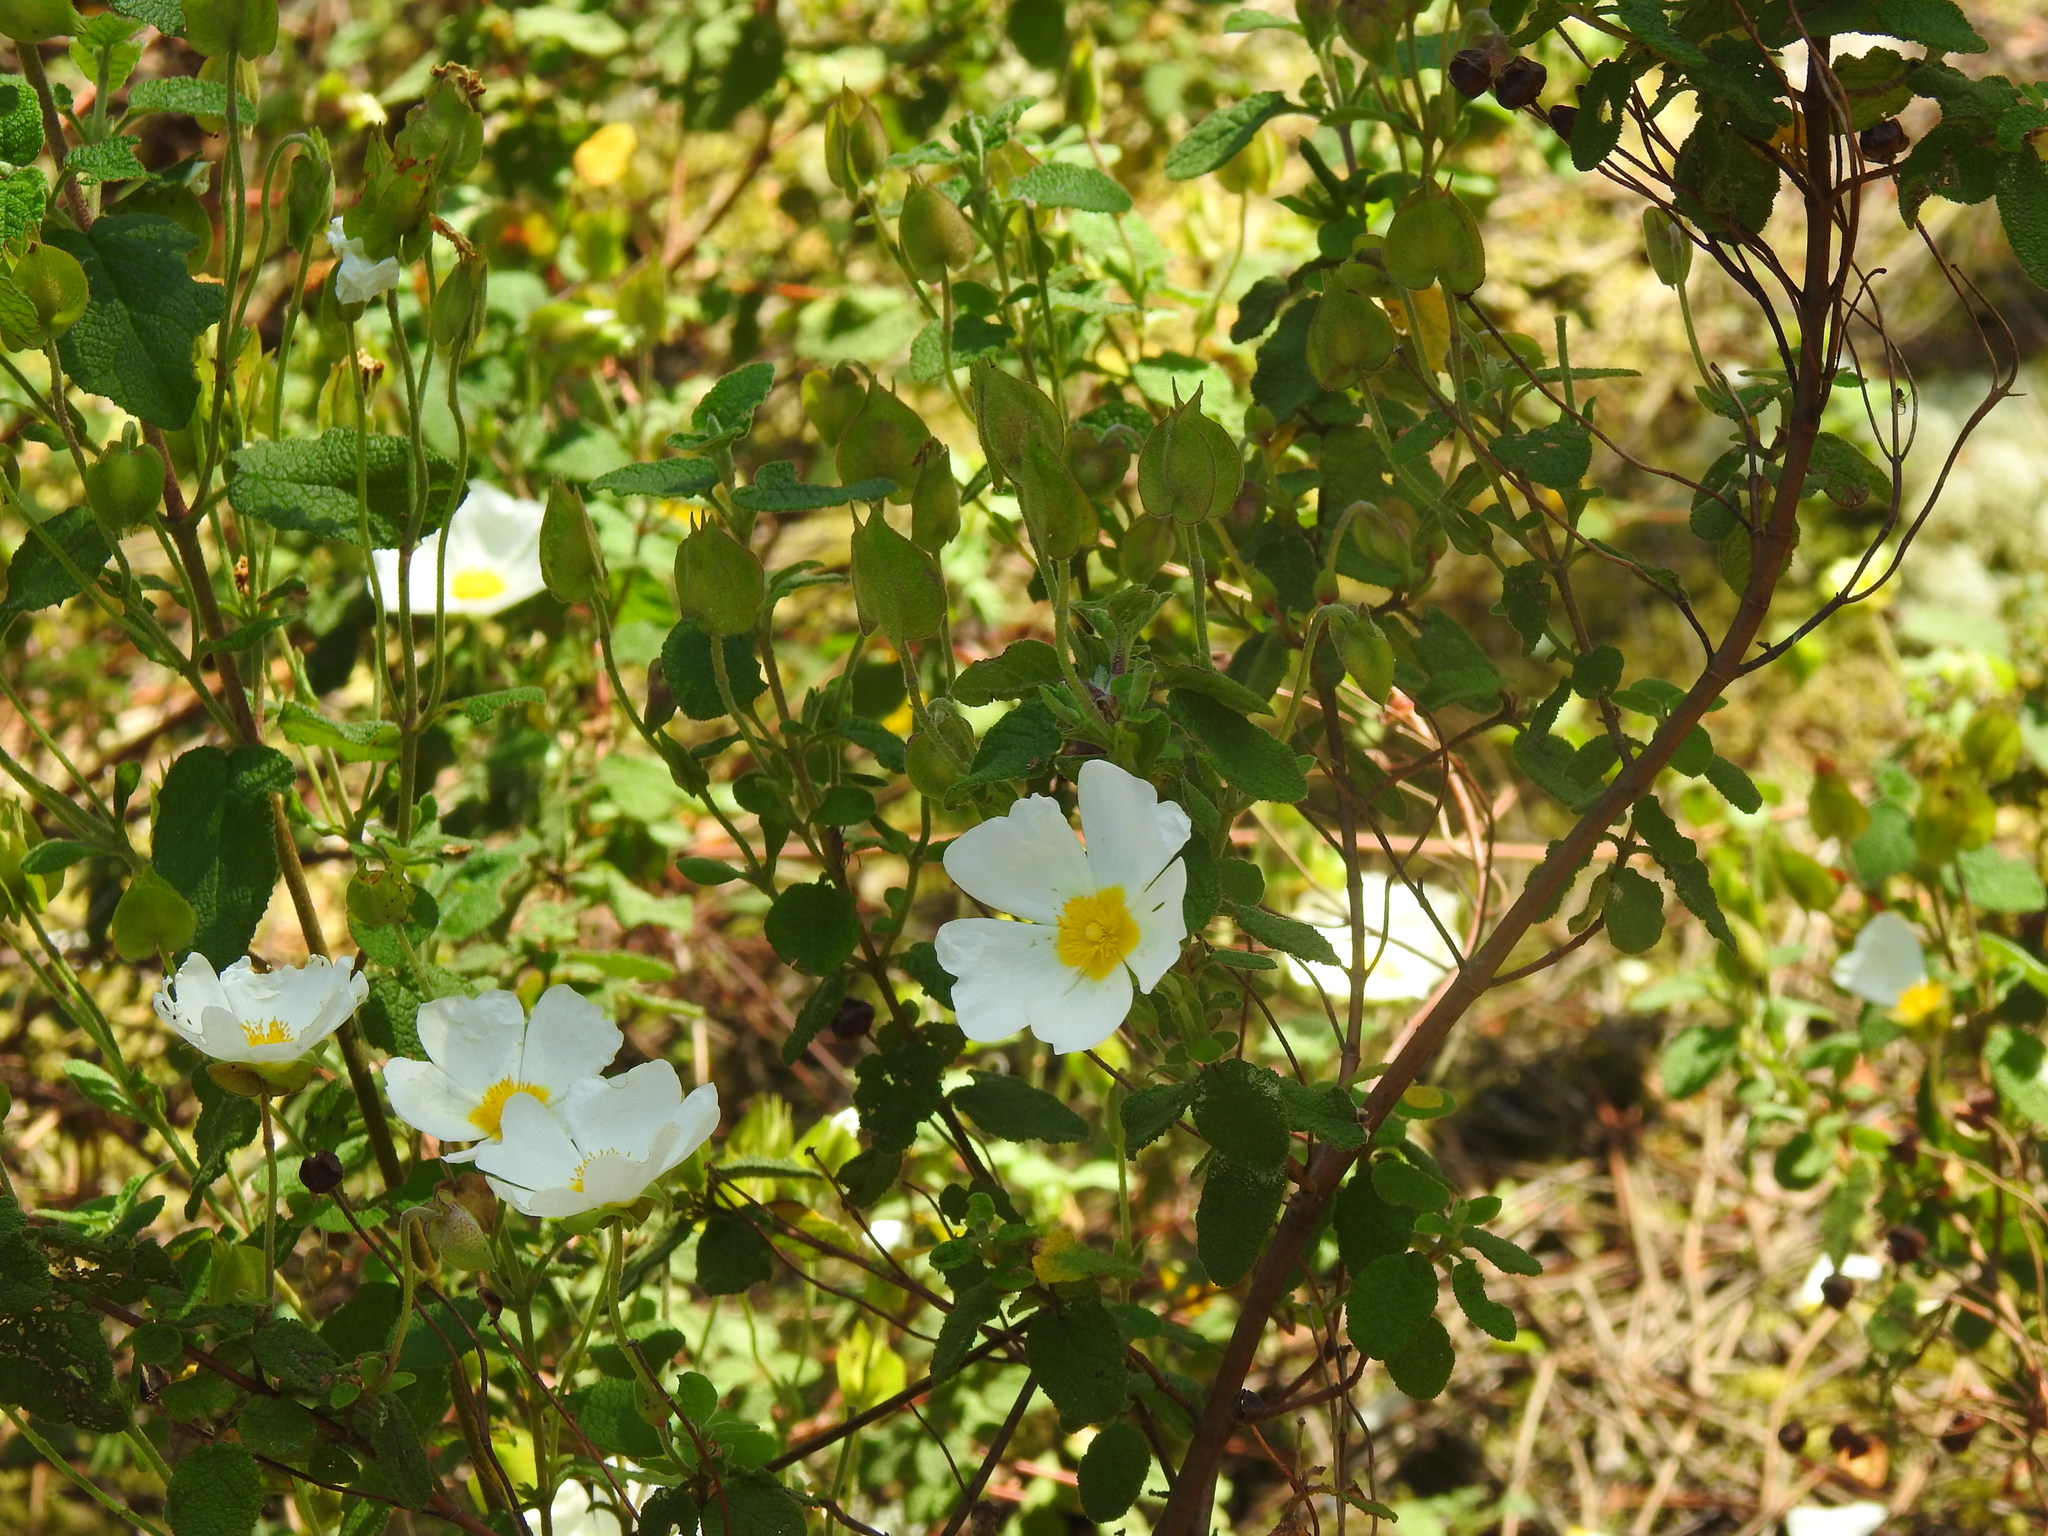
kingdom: Plantae
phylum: Tracheophyta
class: Magnoliopsida
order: Malvales
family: Cistaceae
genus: Cistus
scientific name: Cistus salviifolius
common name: Salvia cistus
